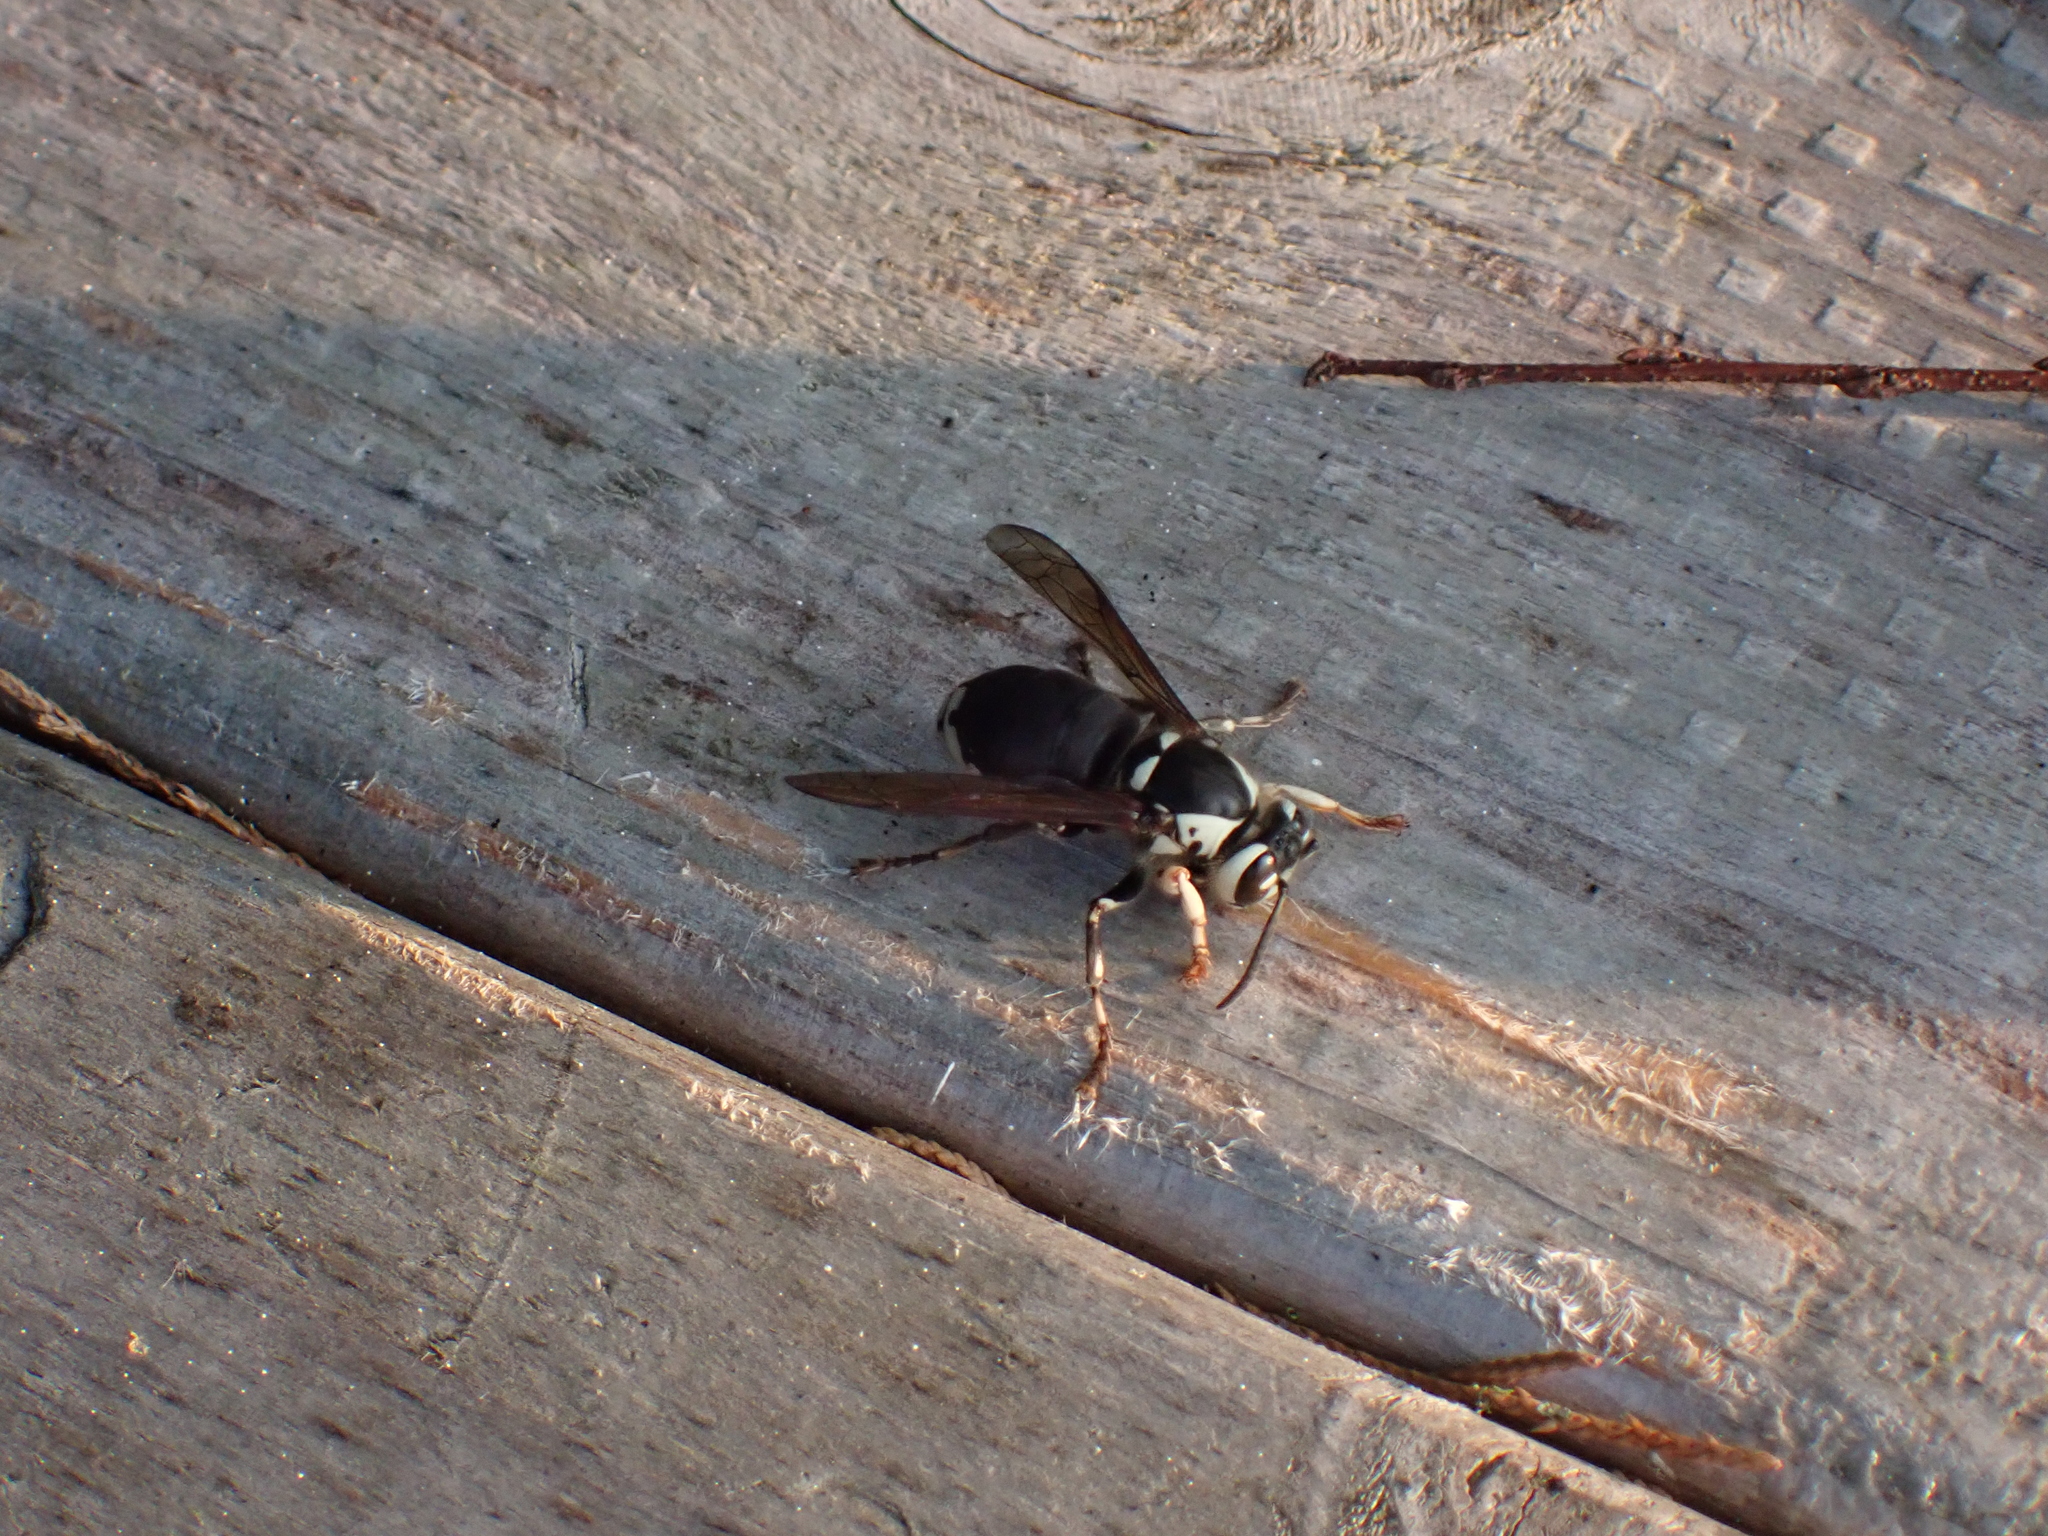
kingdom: Animalia
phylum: Arthropoda
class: Insecta
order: Hymenoptera
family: Vespidae
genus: Dolichovespula
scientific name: Dolichovespula maculata
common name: Bald-faced hornet
